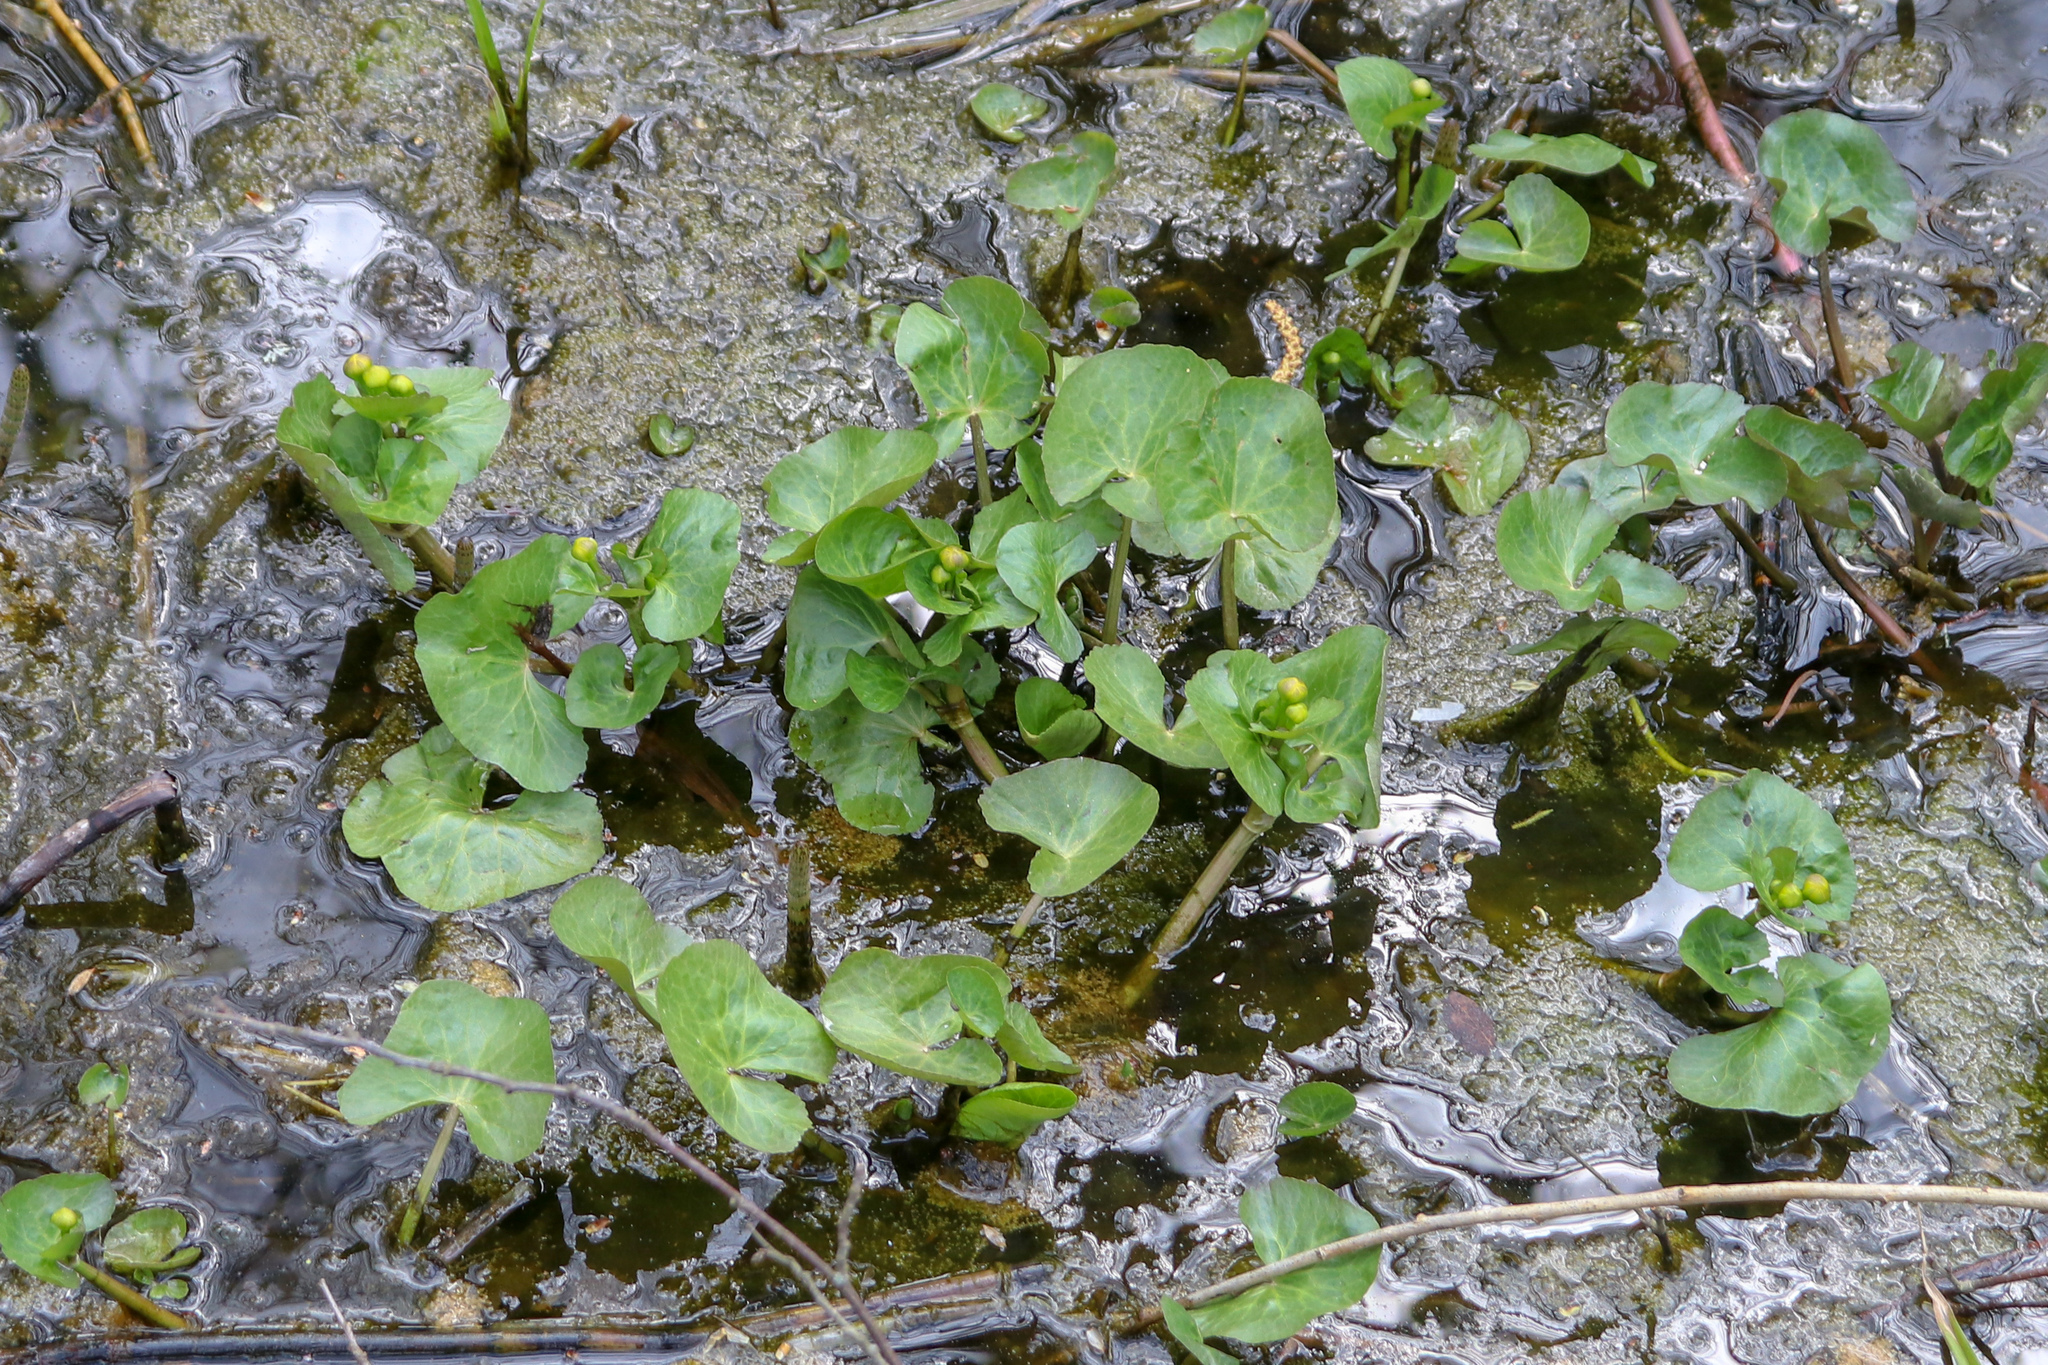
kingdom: Plantae
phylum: Tracheophyta
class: Magnoliopsida
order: Ranunculales
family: Ranunculaceae
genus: Caltha
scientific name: Caltha palustris
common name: Marsh marigold
